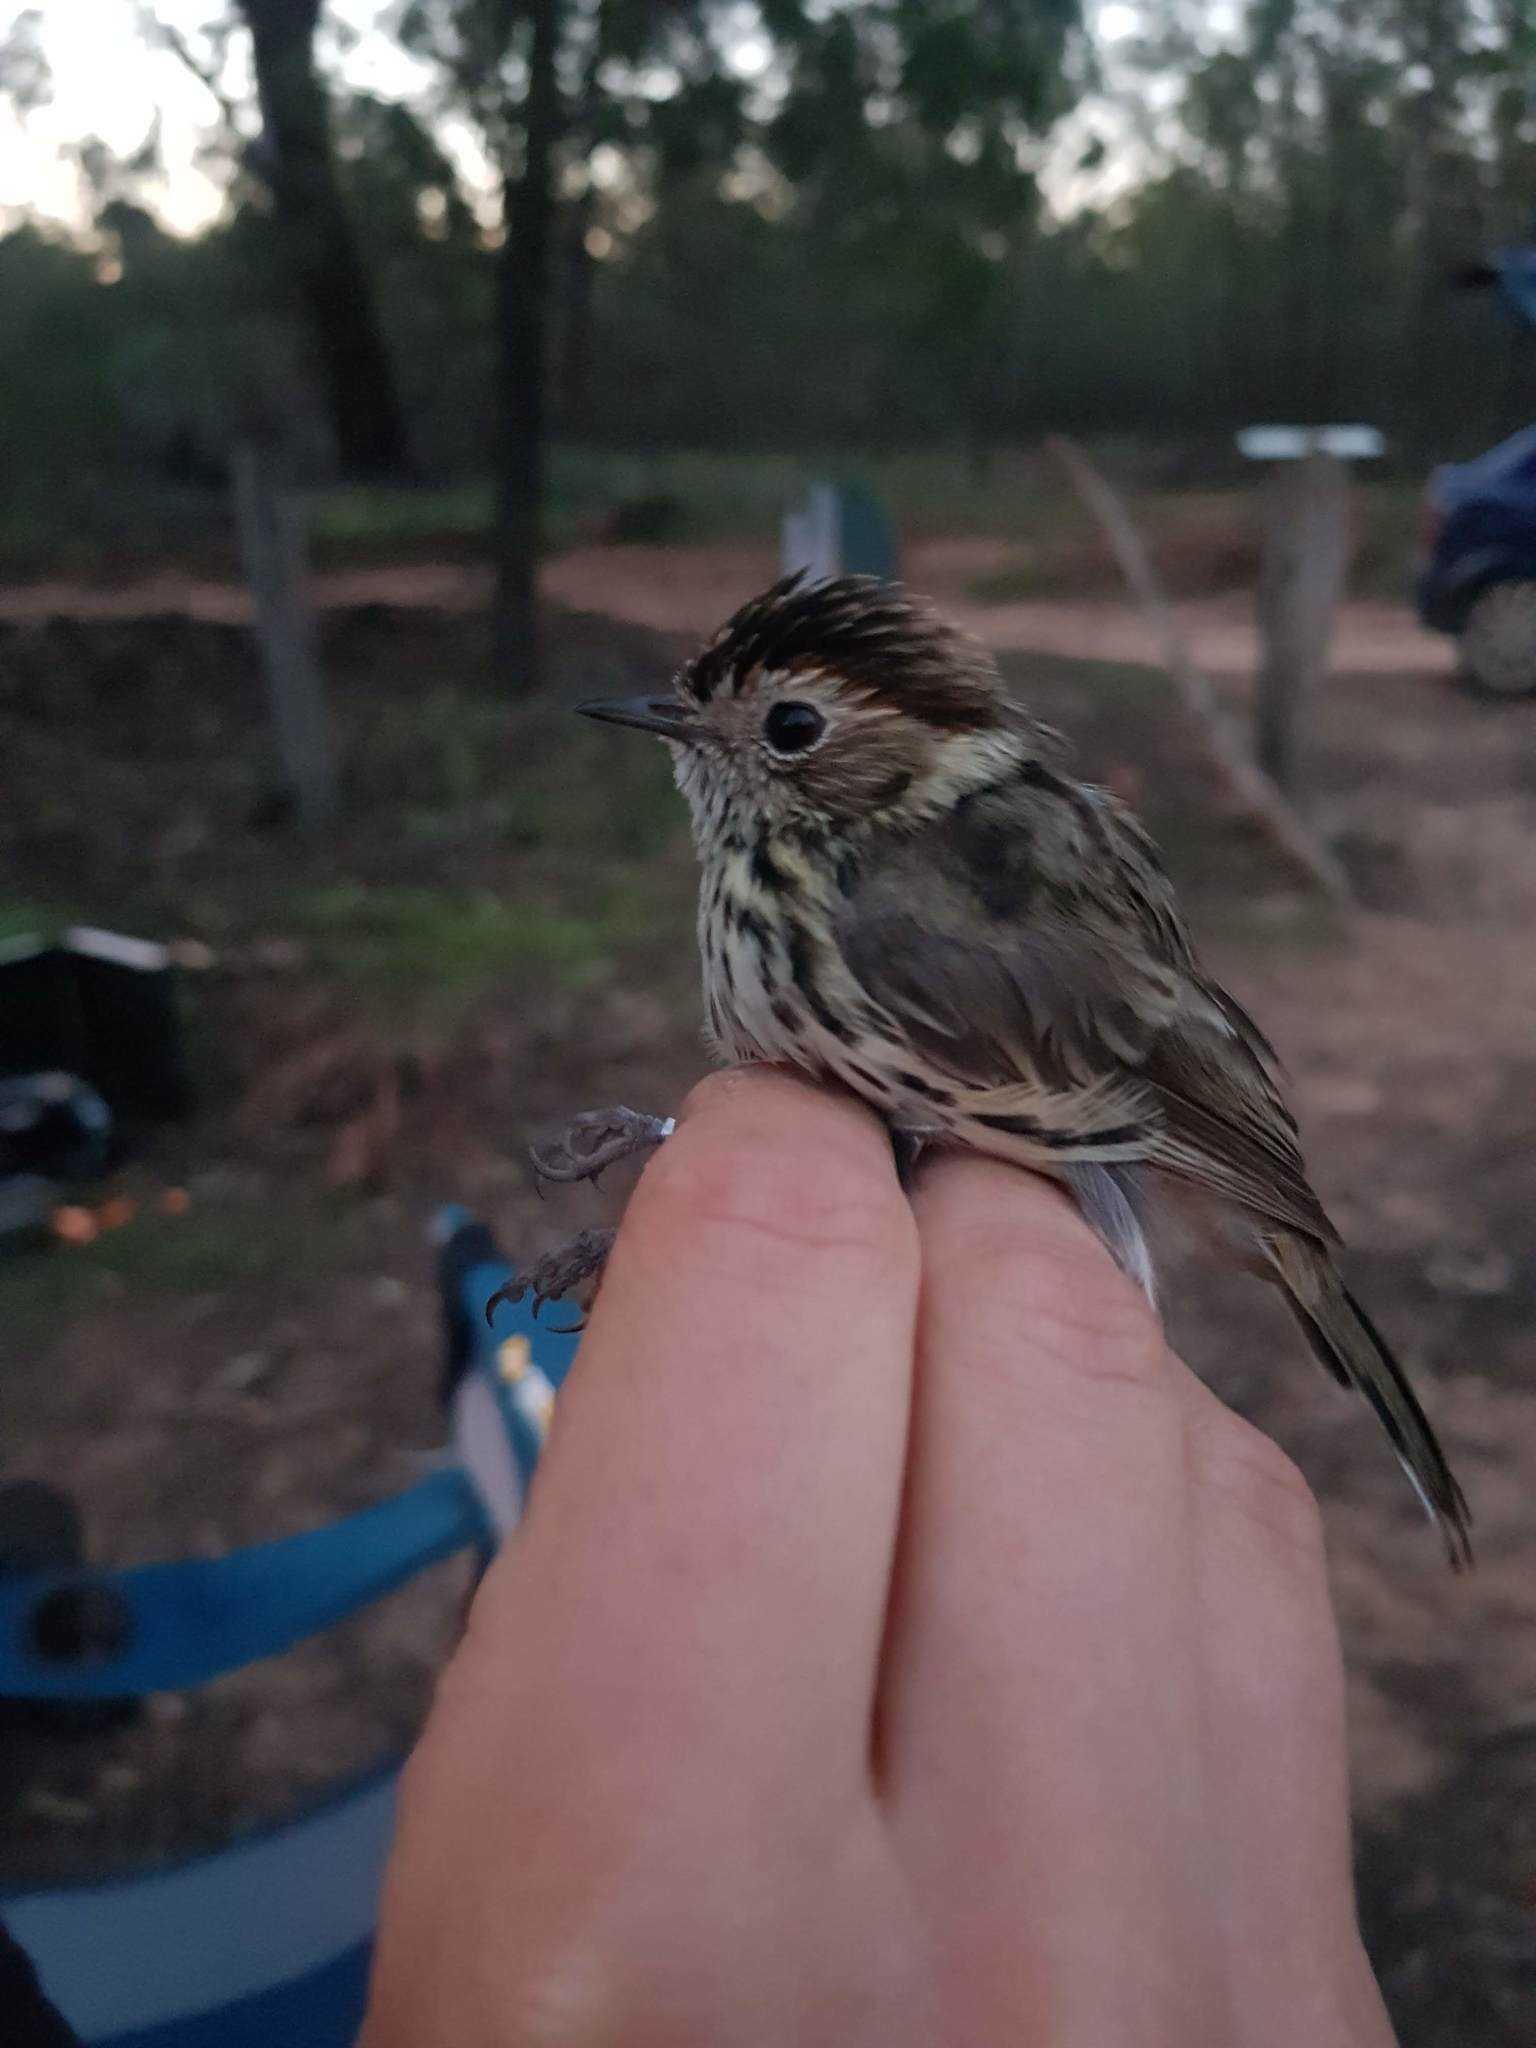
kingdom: Animalia
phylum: Chordata
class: Aves
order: Passeriformes
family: Acanthizidae
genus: Pyrrholaemus
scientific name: Pyrrholaemus sagittatus
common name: Speckled warbler
